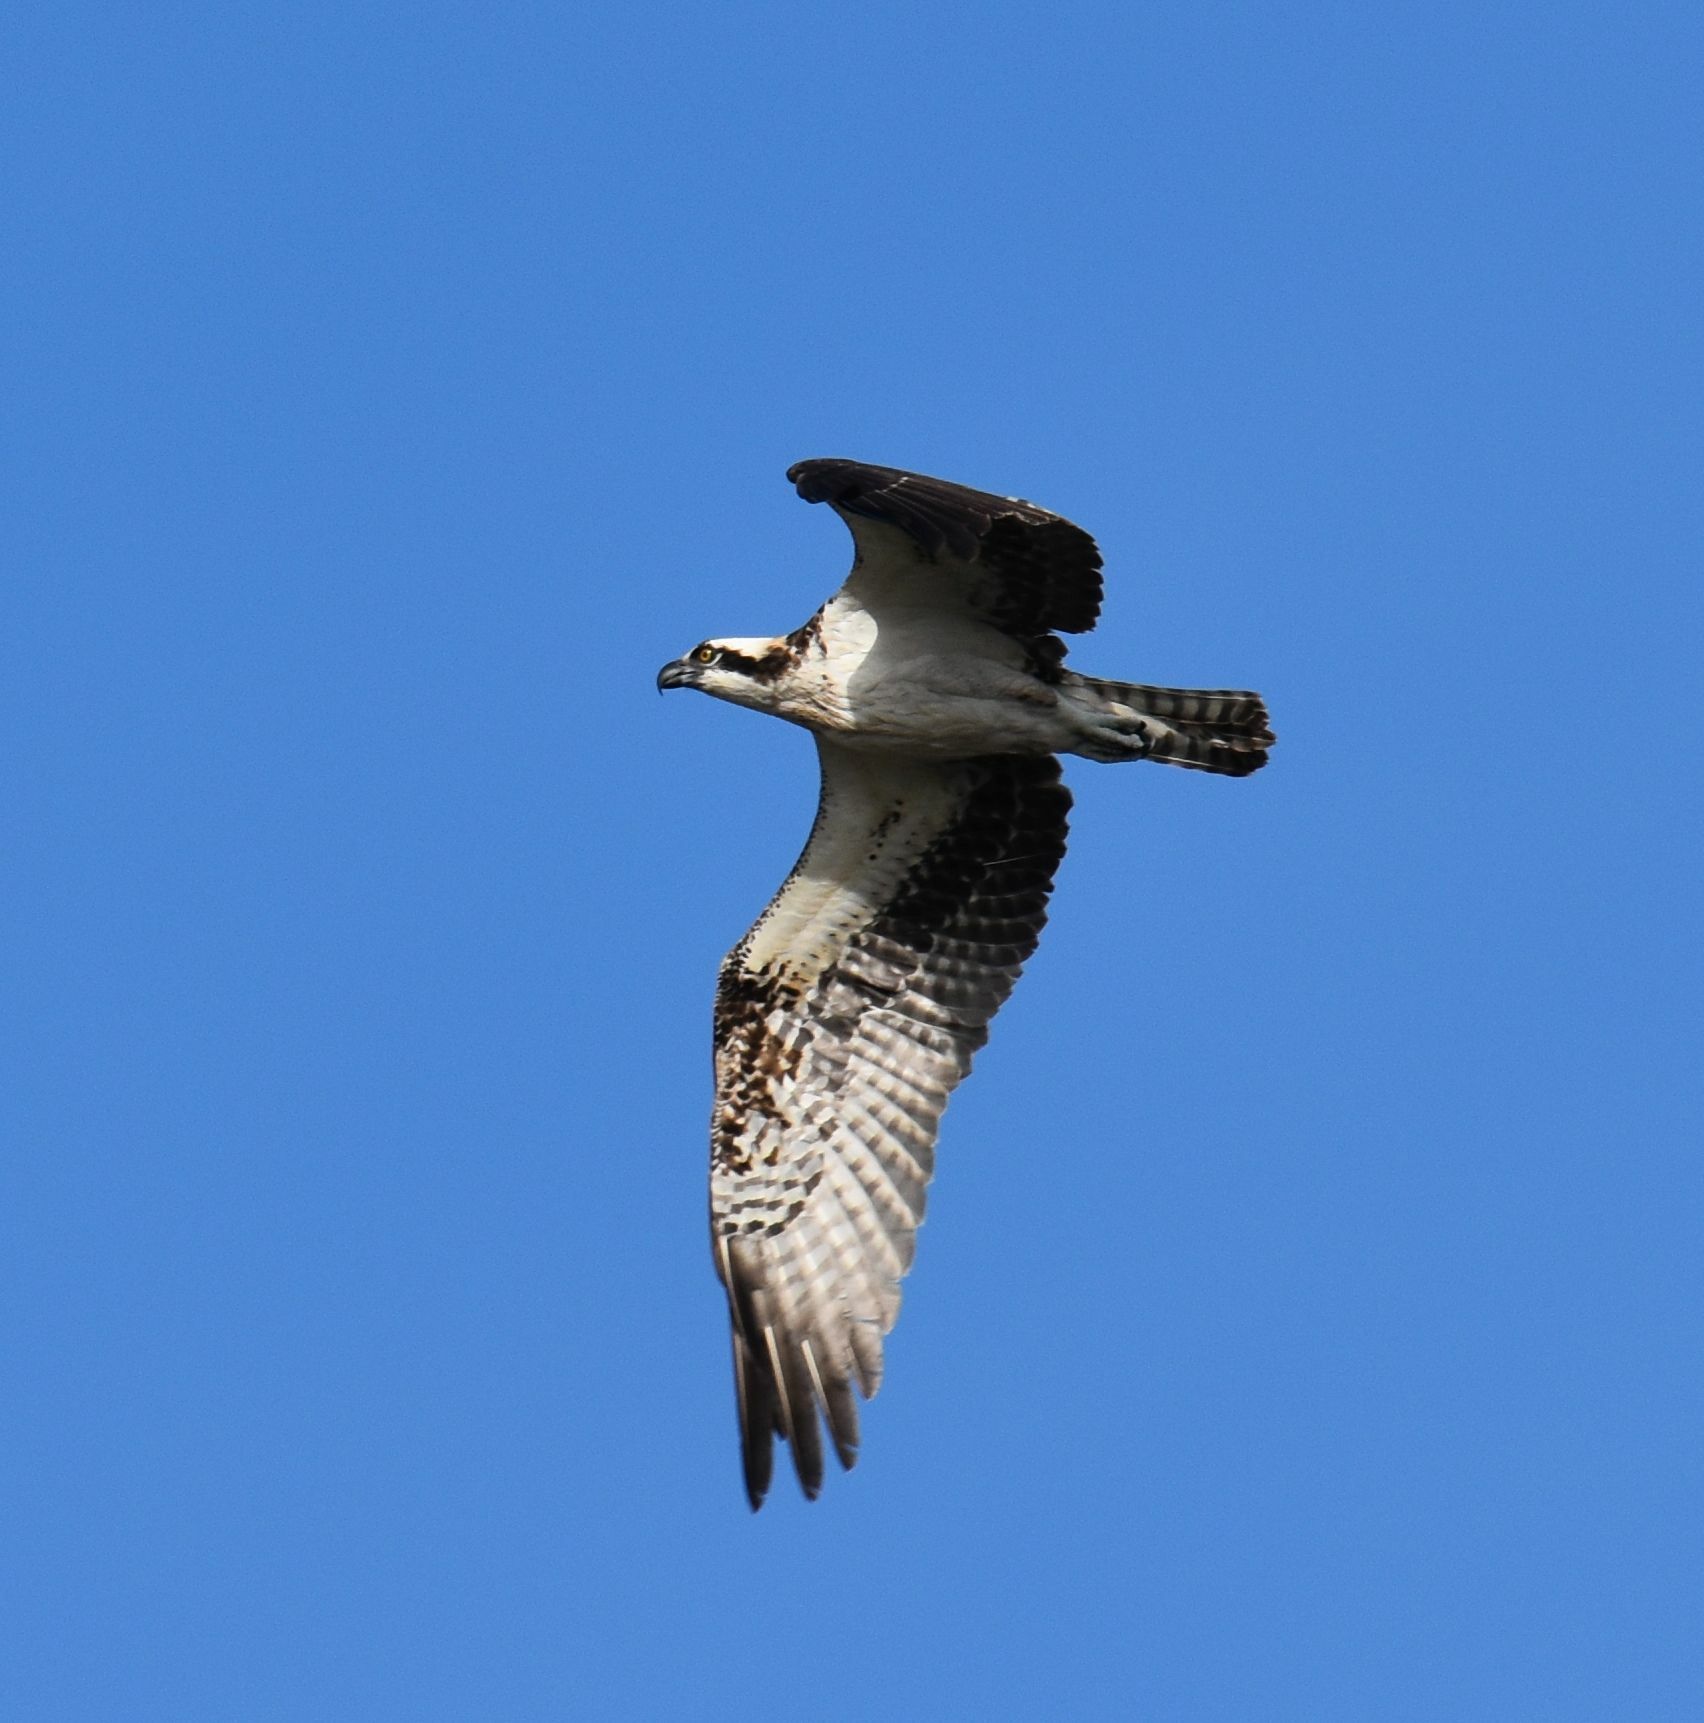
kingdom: Animalia
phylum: Chordata
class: Aves
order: Accipitriformes
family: Pandionidae
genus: Pandion
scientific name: Pandion haliaetus
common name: Osprey
